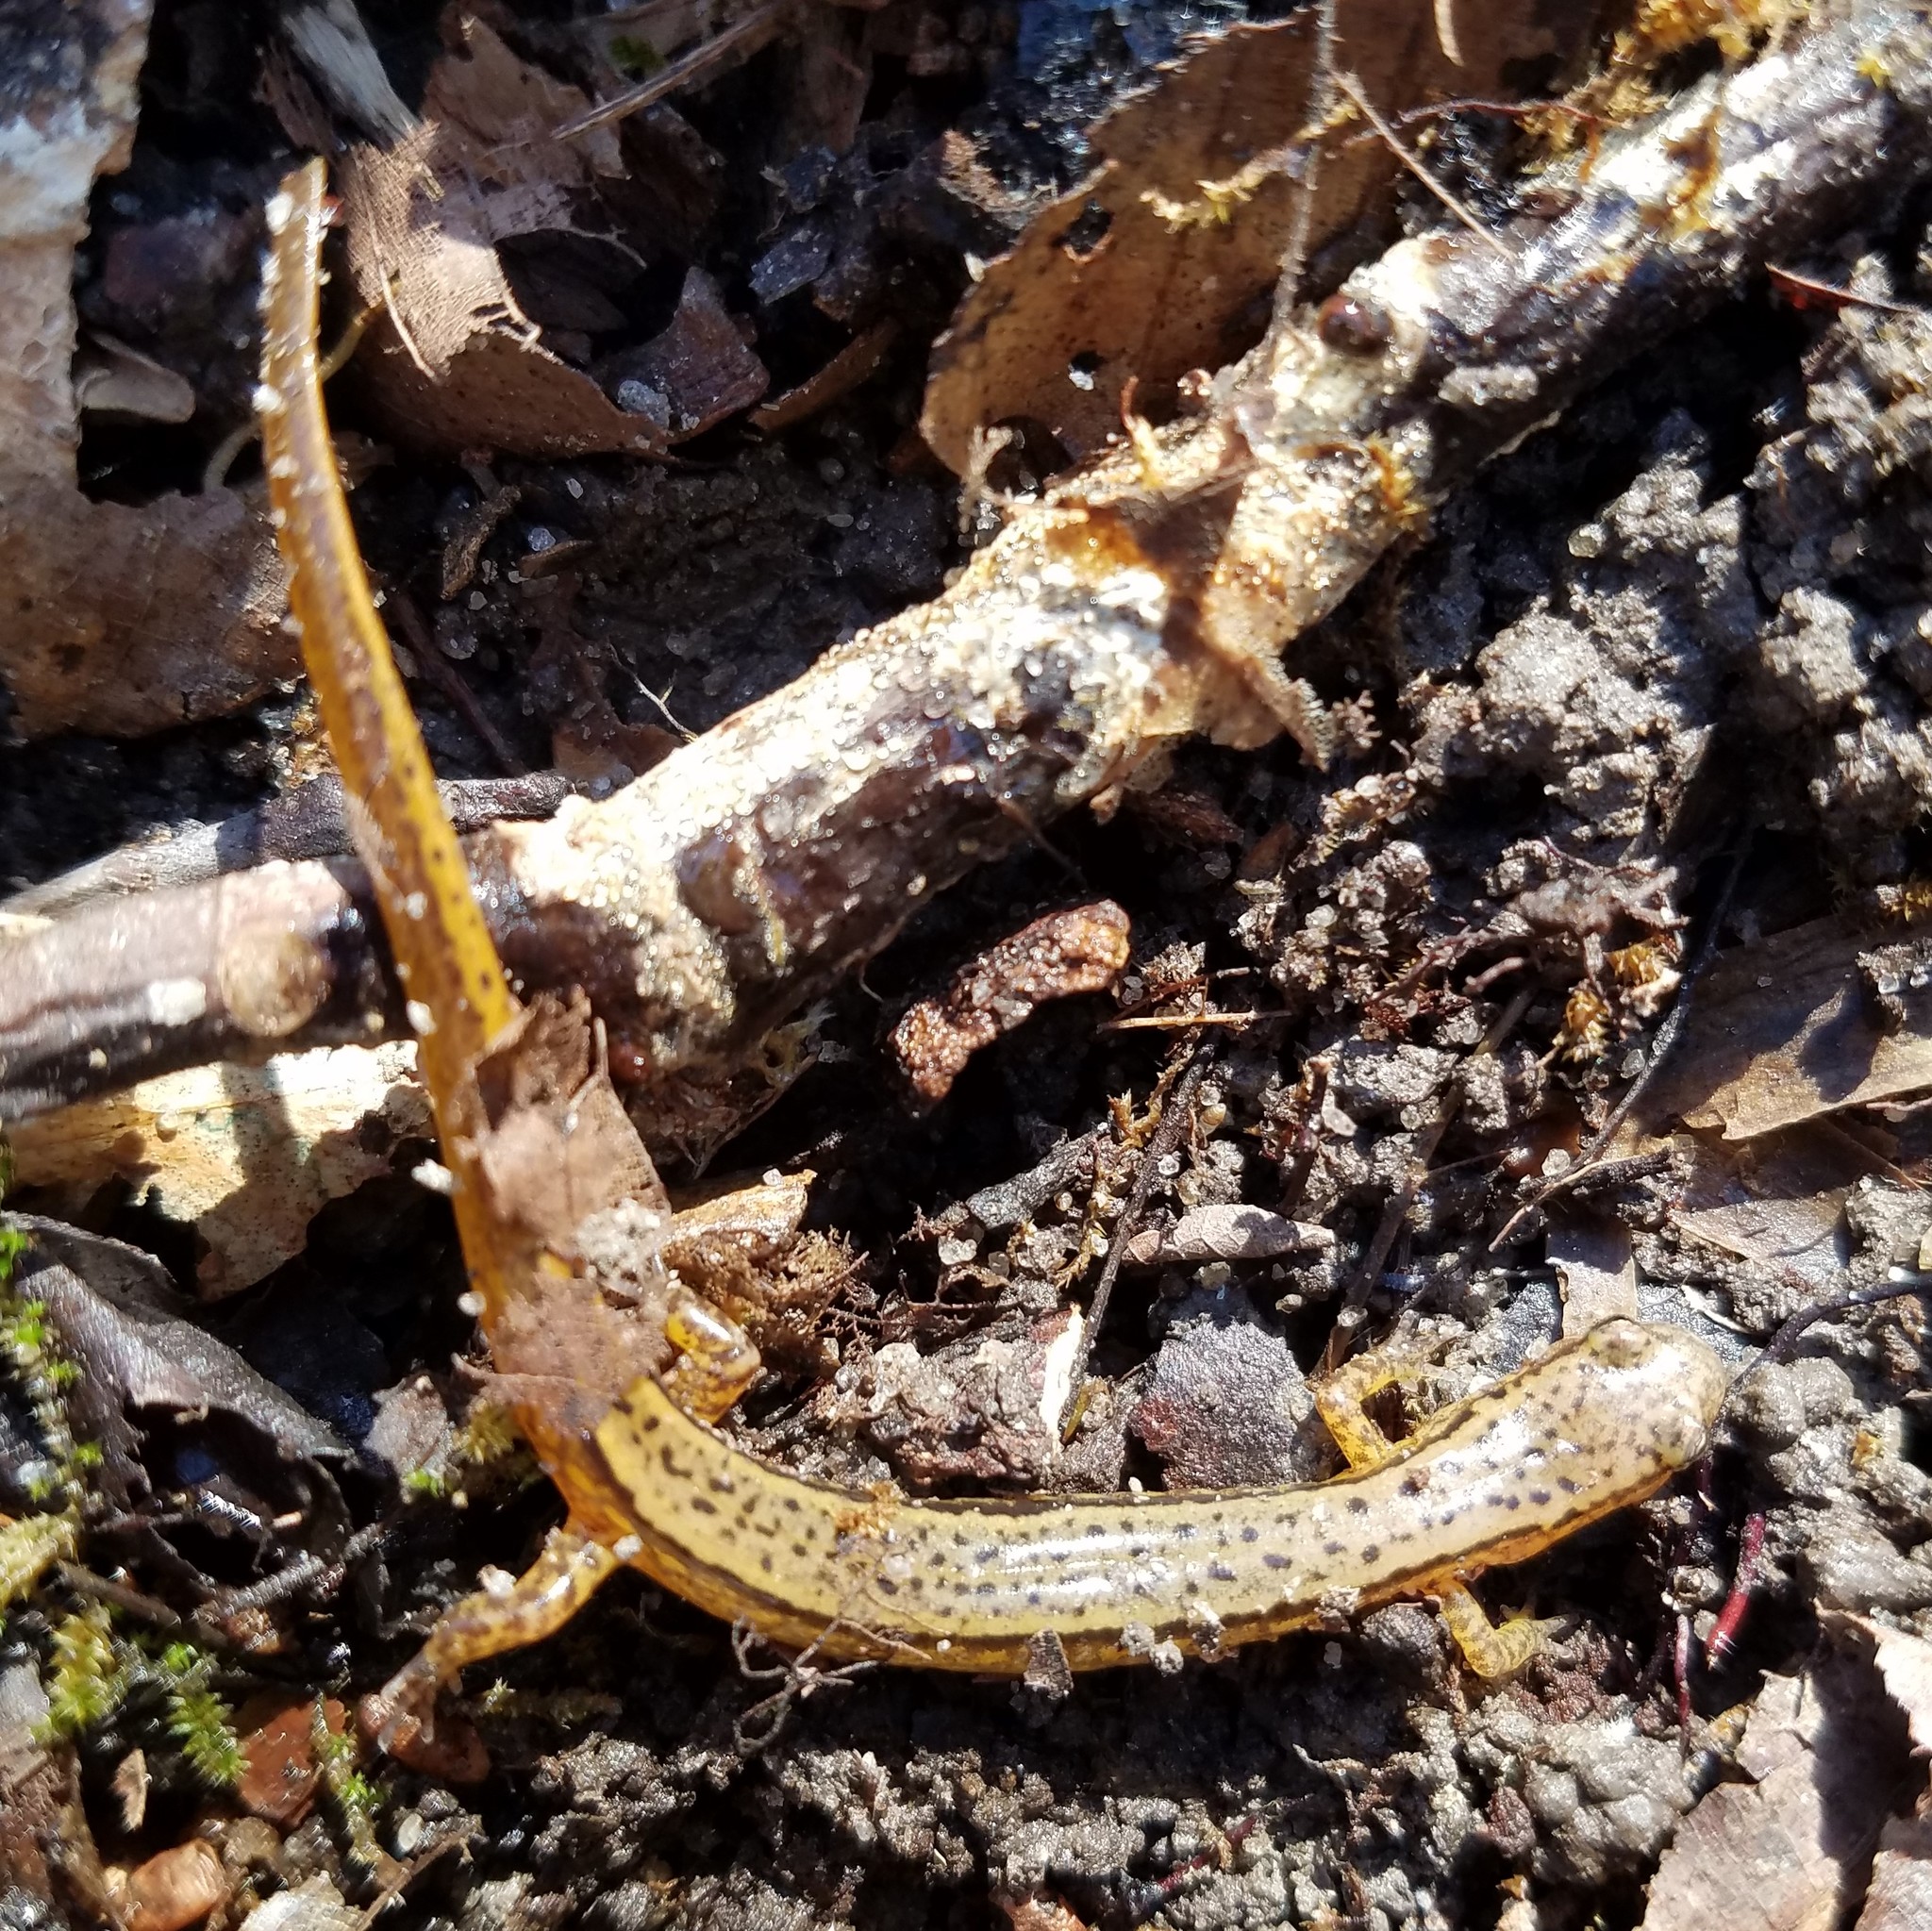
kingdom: Animalia
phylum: Chordata
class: Amphibia
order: Caudata
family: Plethodontidae
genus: Eurycea
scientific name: Eurycea cirrigera
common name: Southern two-lined salamander
